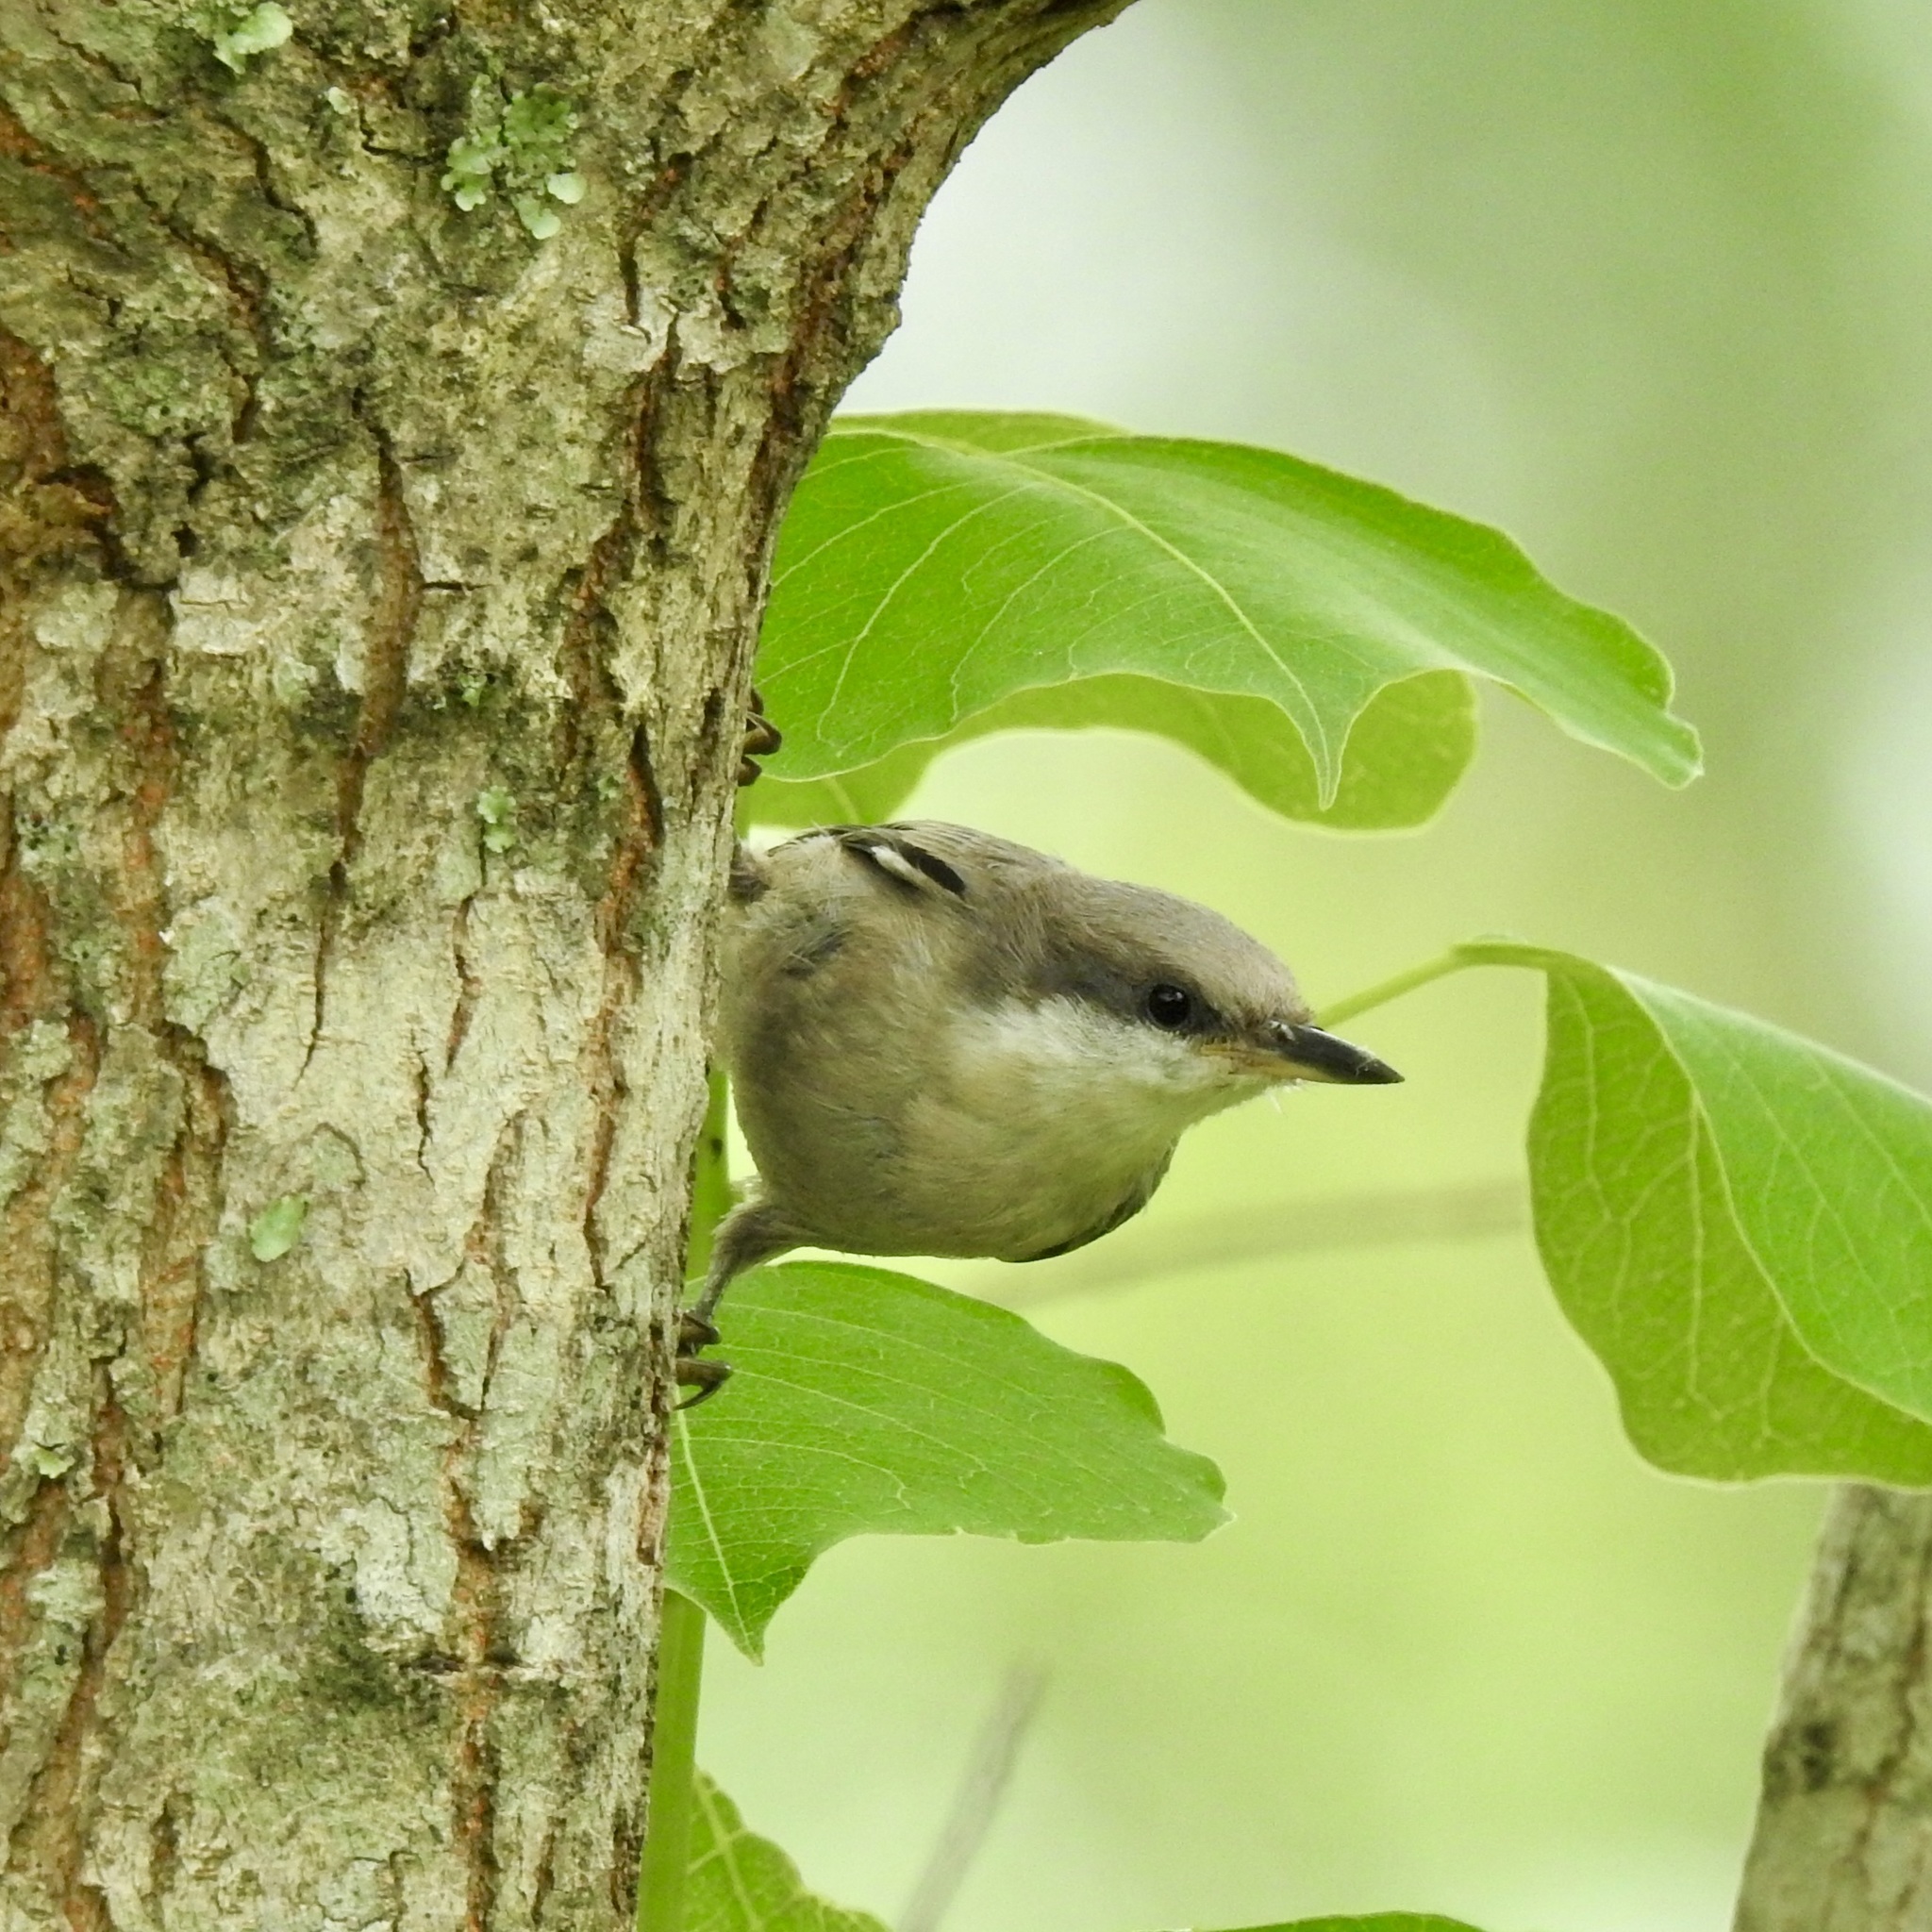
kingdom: Animalia
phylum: Chordata
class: Aves
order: Passeriformes
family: Sittidae
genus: Sitta
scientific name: Sitta pusilla
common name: Brown-headed nuthatch
